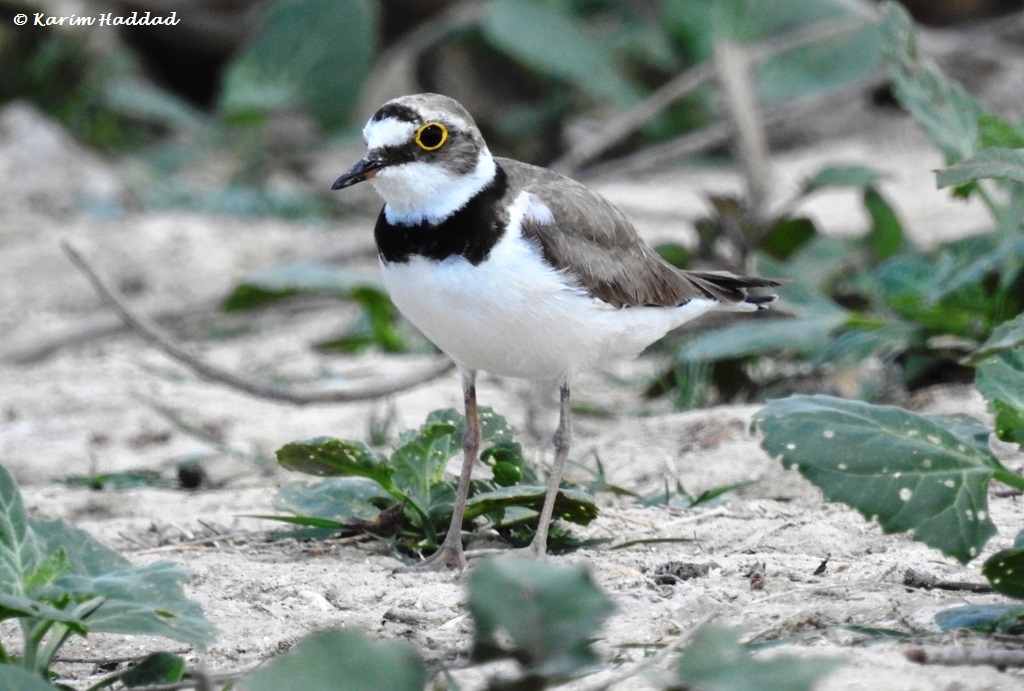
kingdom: Animalia
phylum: Chordata
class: Aves
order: Charadriiformes
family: Charadriidae
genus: Charadrius
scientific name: Charadrius dubius
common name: Little ringed plover
